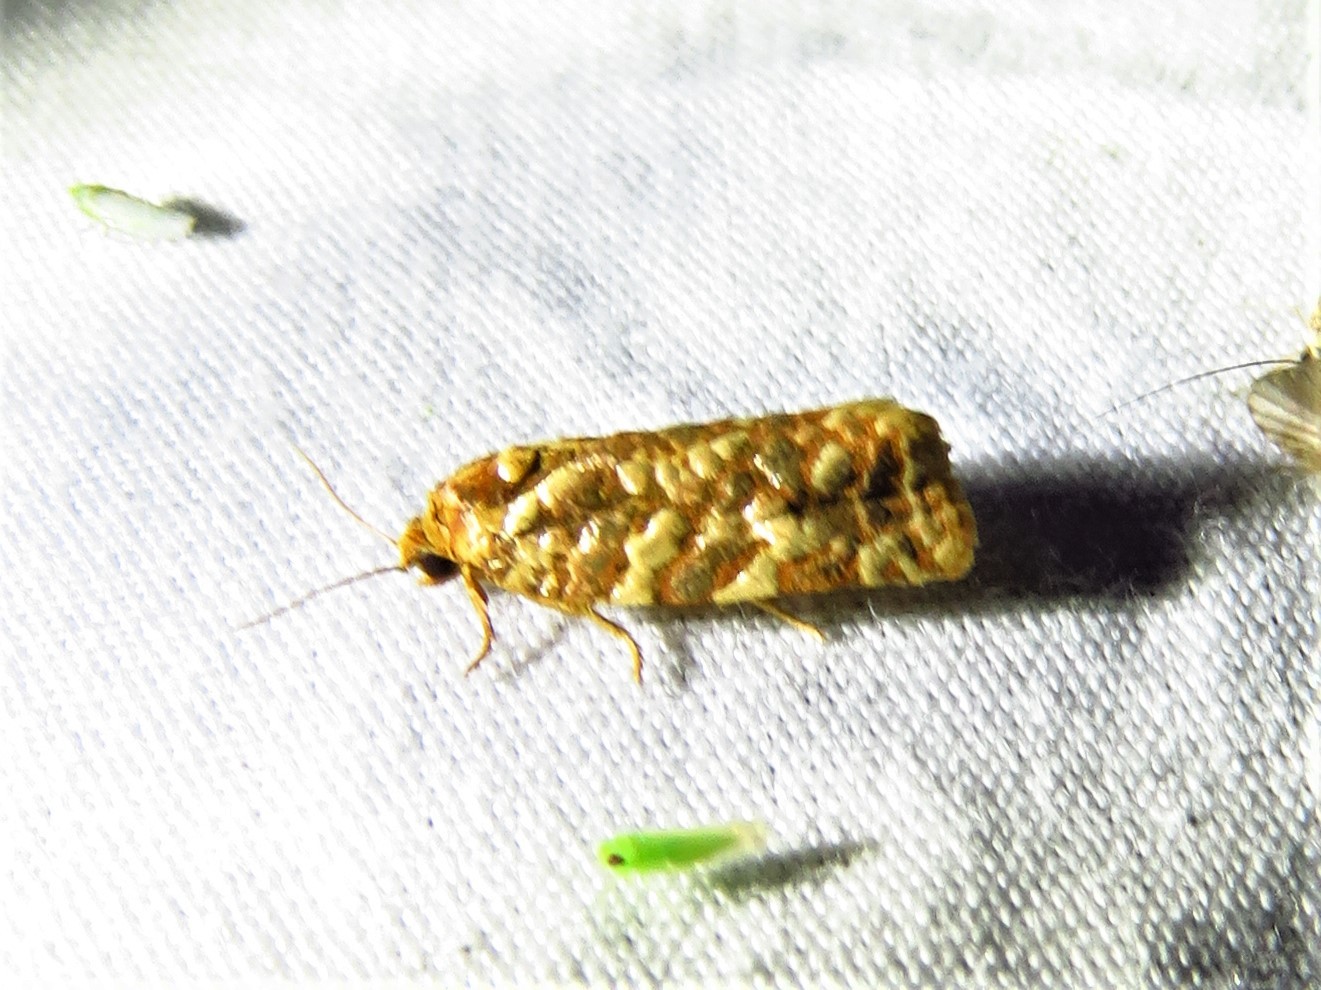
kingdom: Animalia
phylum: Arthropoda
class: Insecta
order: Lepidoptera
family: Tortricidae
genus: Choristoneura
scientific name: Choristoneura houstonana
